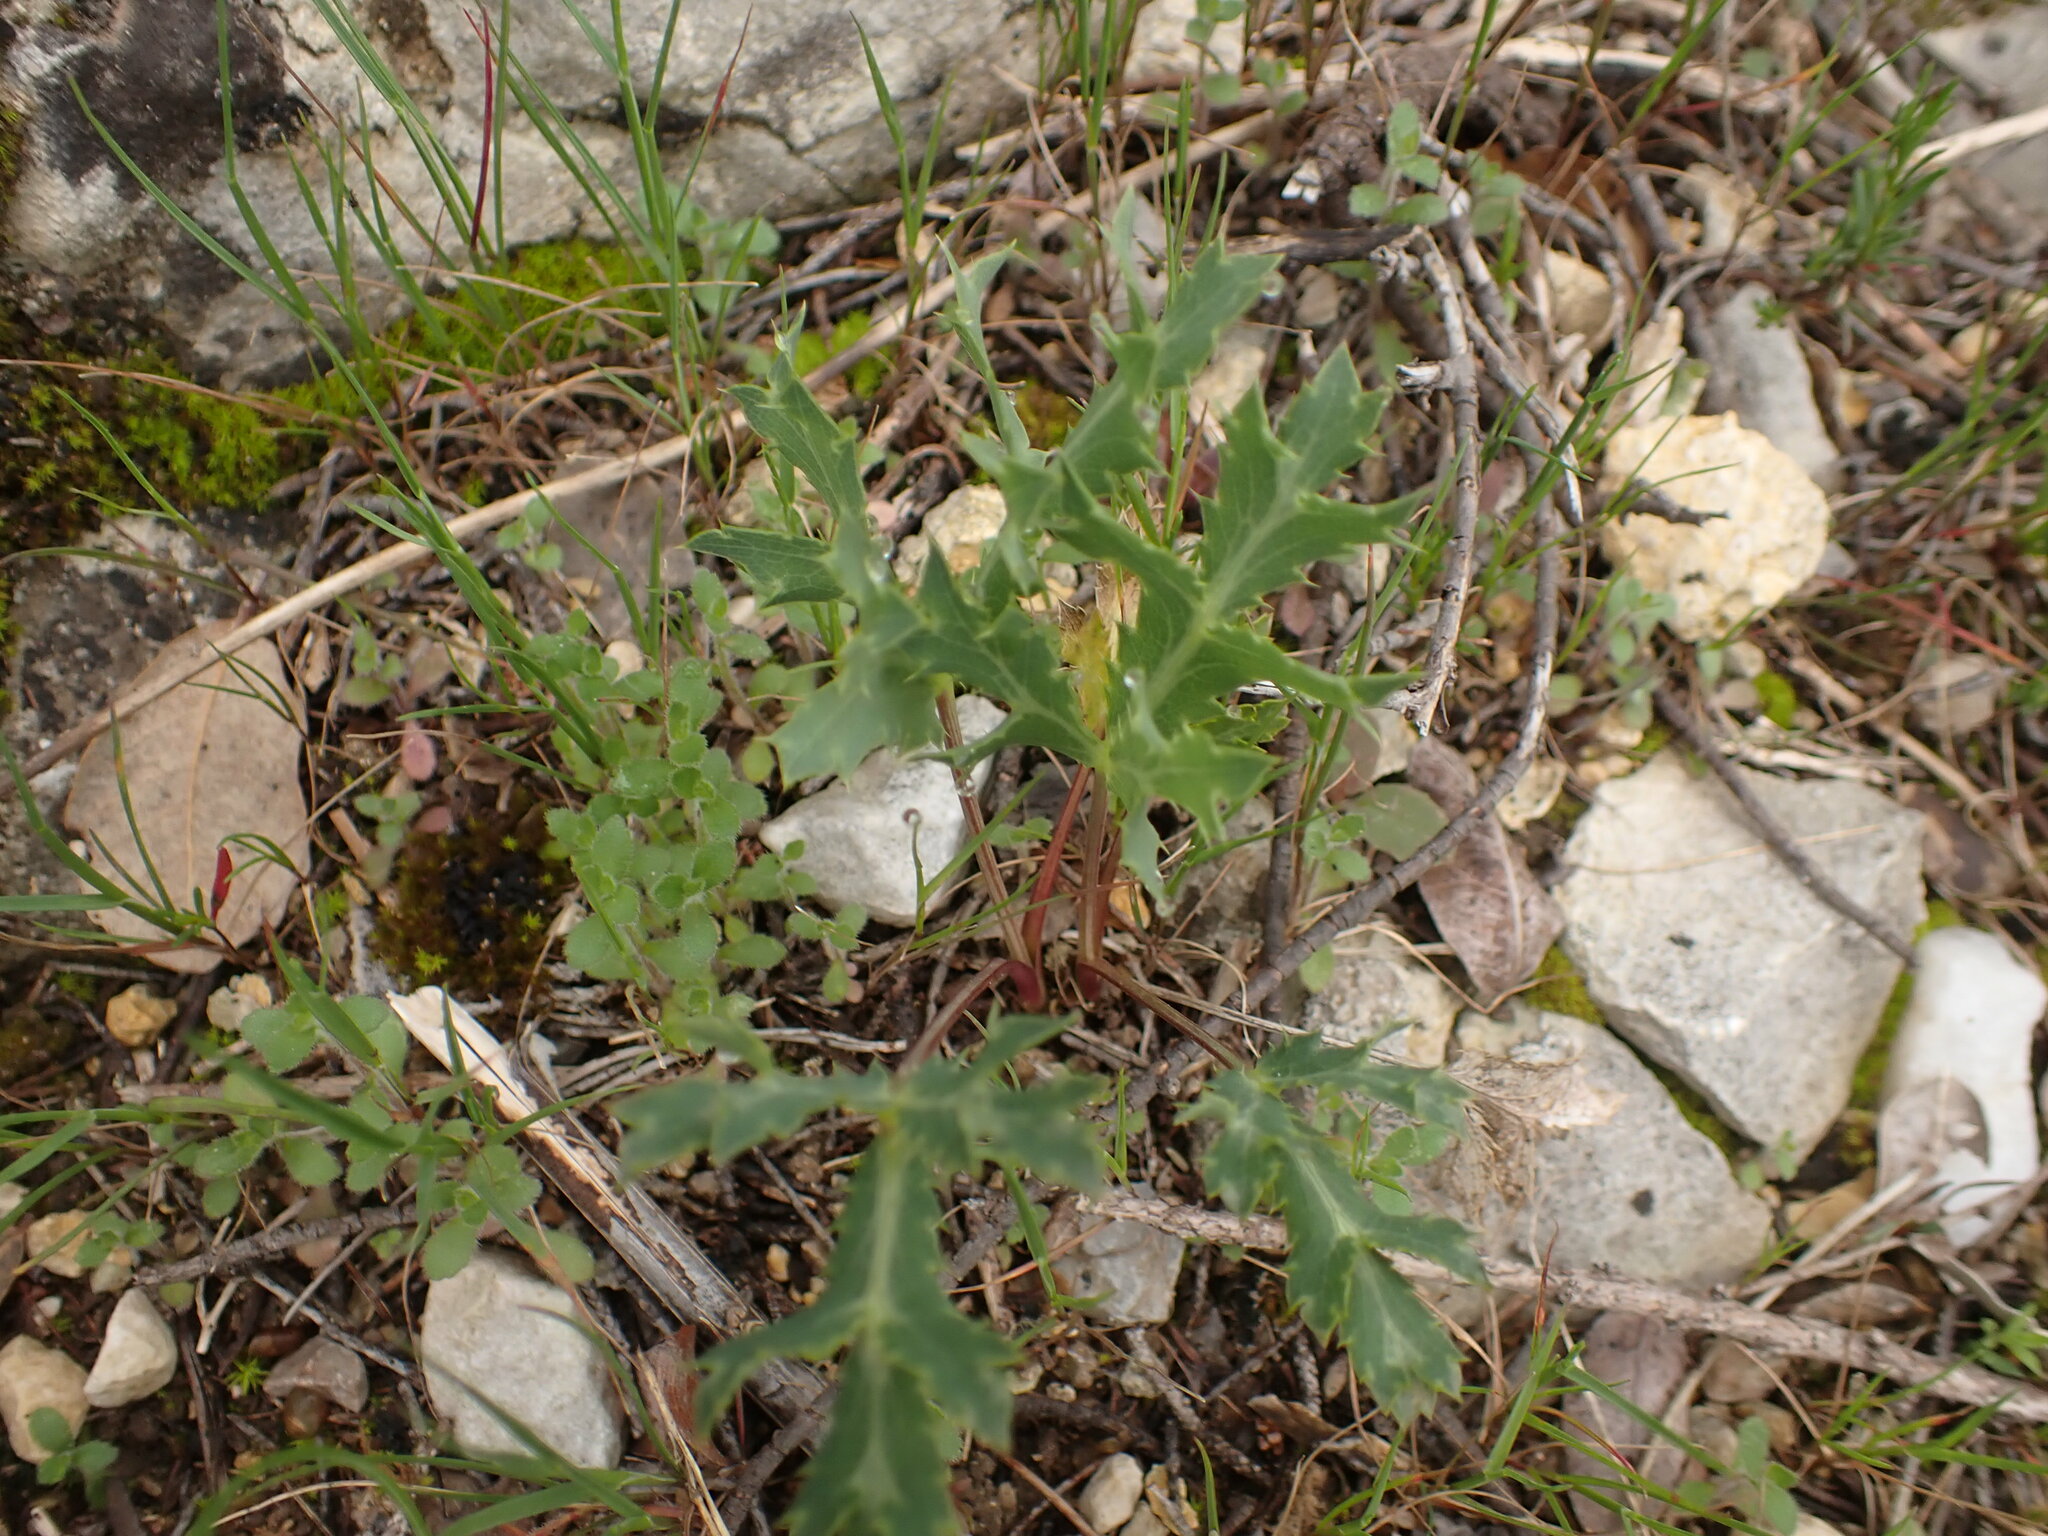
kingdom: Plantae
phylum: Tracheophyta
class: Magnoliopsida
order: Apiales
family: Apiaceae
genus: Eryngium
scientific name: Eryngium campestre
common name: Field eryngo
